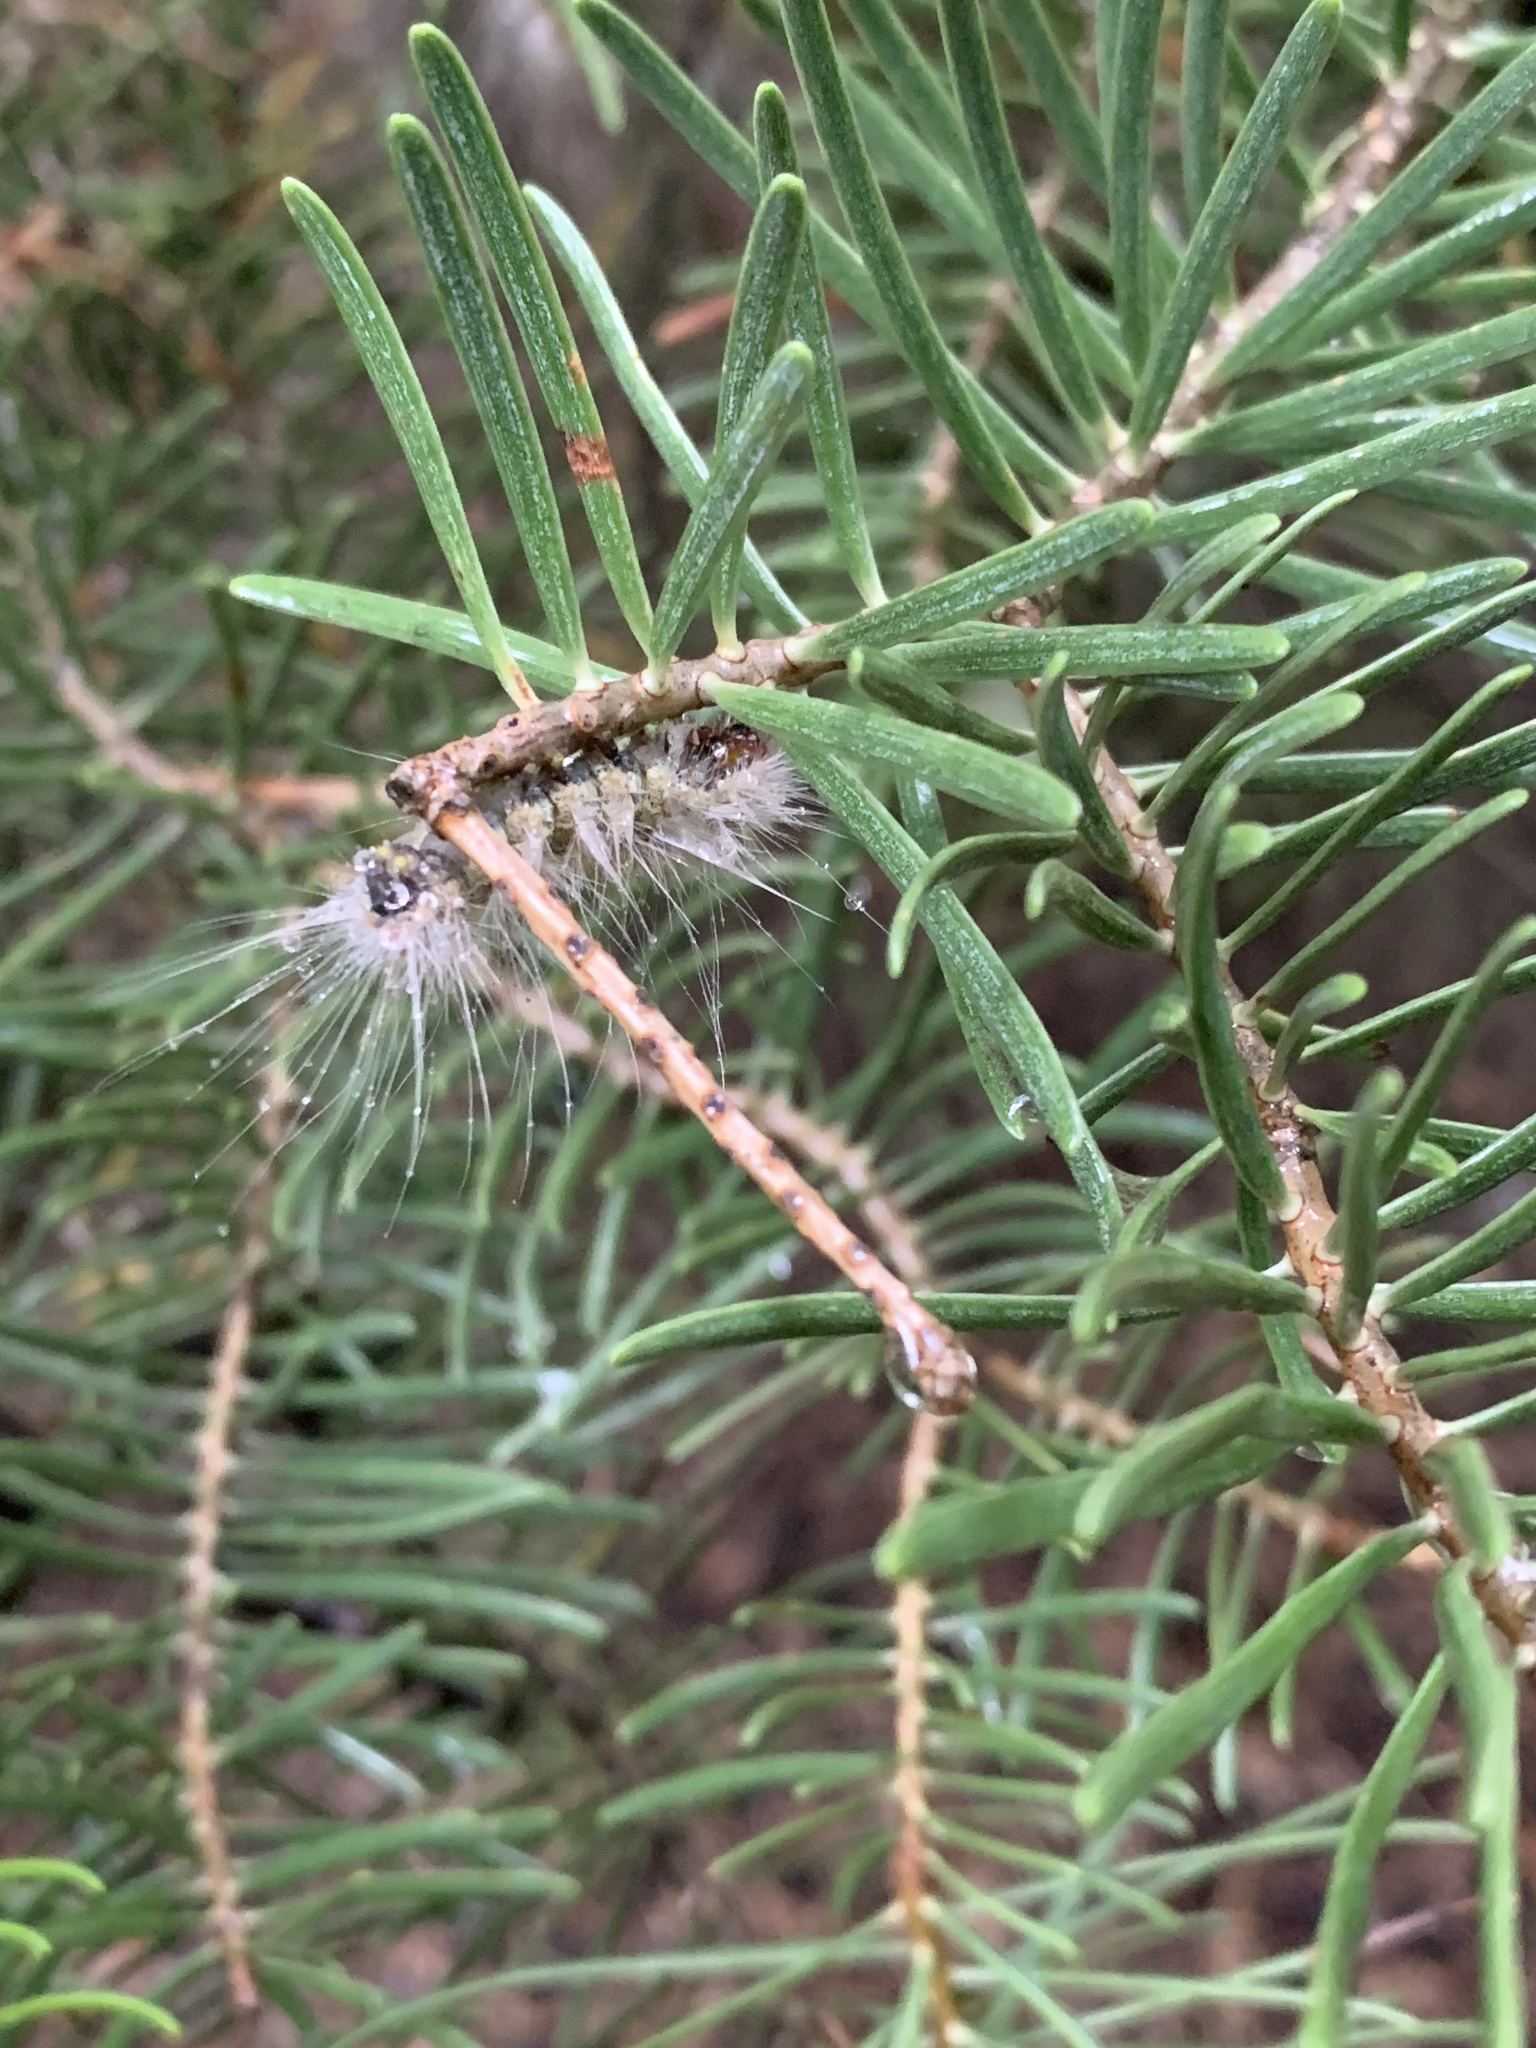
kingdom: Plantae
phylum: Tracheophyta
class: Pinopsida
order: Pinales
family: Pinaceae
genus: Abies
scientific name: Abies concolor
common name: Colorado fir
